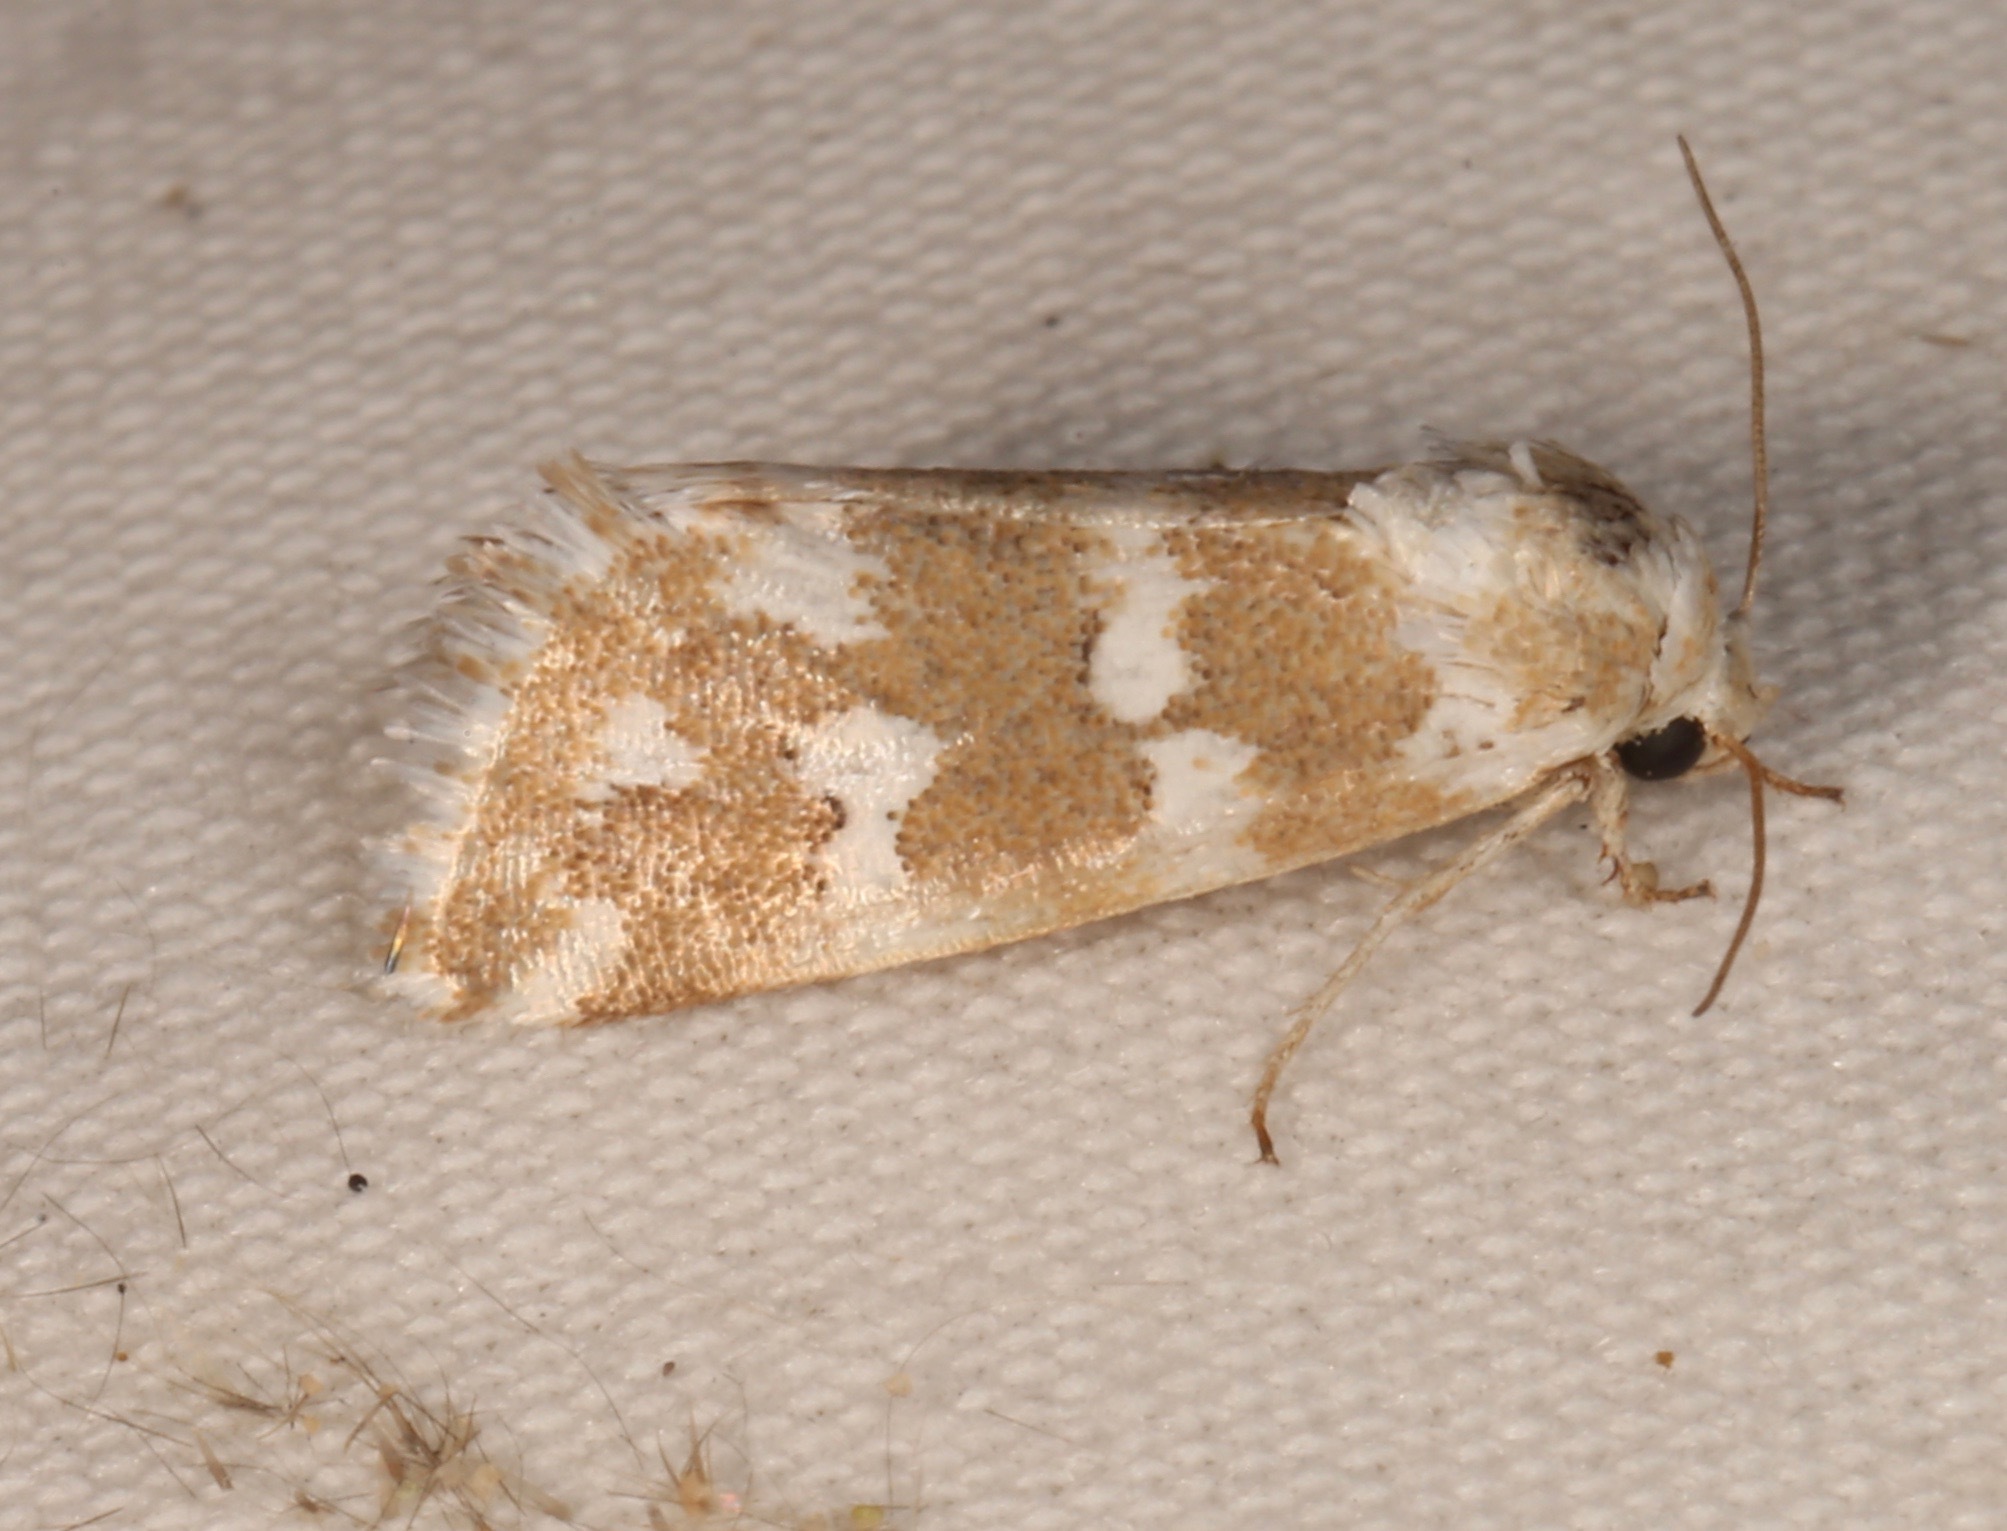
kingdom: Animalia
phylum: Arthropoda
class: Insecta
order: Lepidoptera
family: Noctuidae
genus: Neotarache
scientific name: Neotarache deserticola
